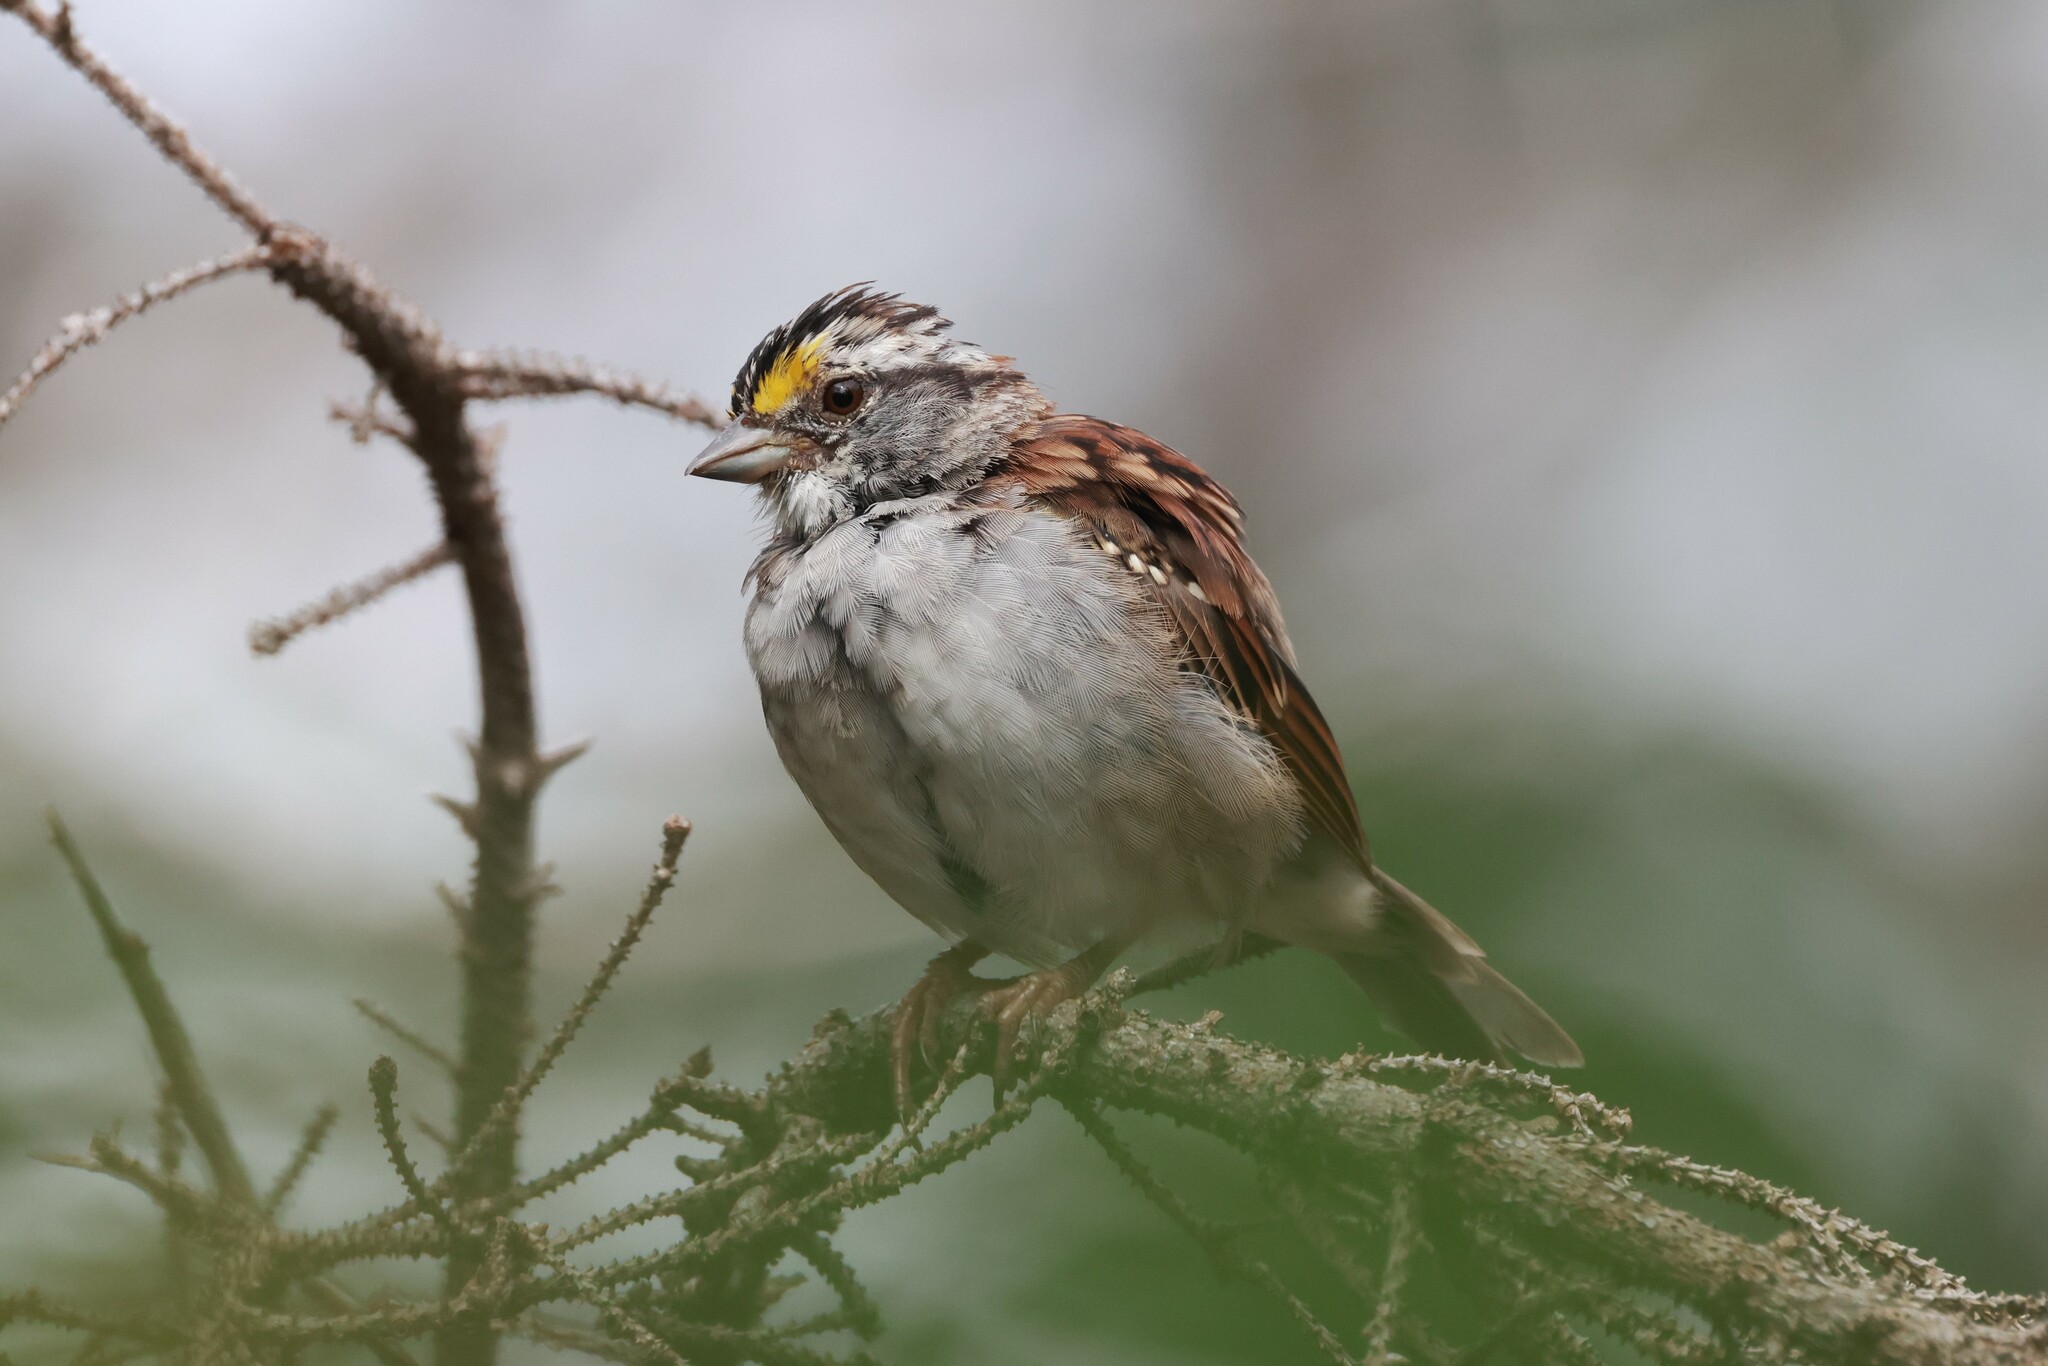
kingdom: Animalia
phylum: Chordata
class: Aves
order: Passeriformes
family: Passerellidae
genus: Zonotrichia
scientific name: Zonotrichia albicollis
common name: White-throated sparrow
